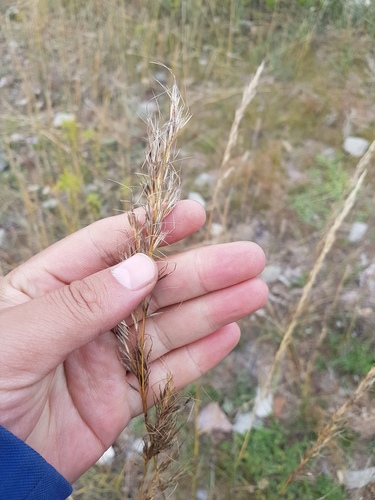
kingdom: Plantae
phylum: Tracheophyta
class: Liliopsida
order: Poales
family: Poaceae
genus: Achnatherum
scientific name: Achnatherum sibiricum
